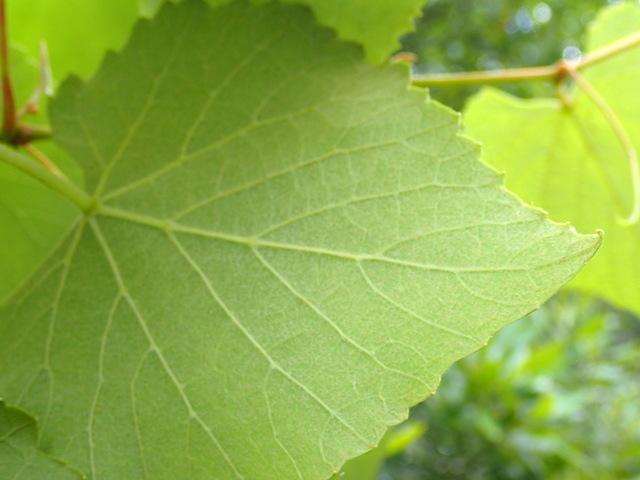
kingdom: Plantae
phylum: Tracheophyta
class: Magnoliopsida
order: Vitales
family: Vitaceae
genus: Vitis
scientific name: Vitis cinerea
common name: Ashy grape
